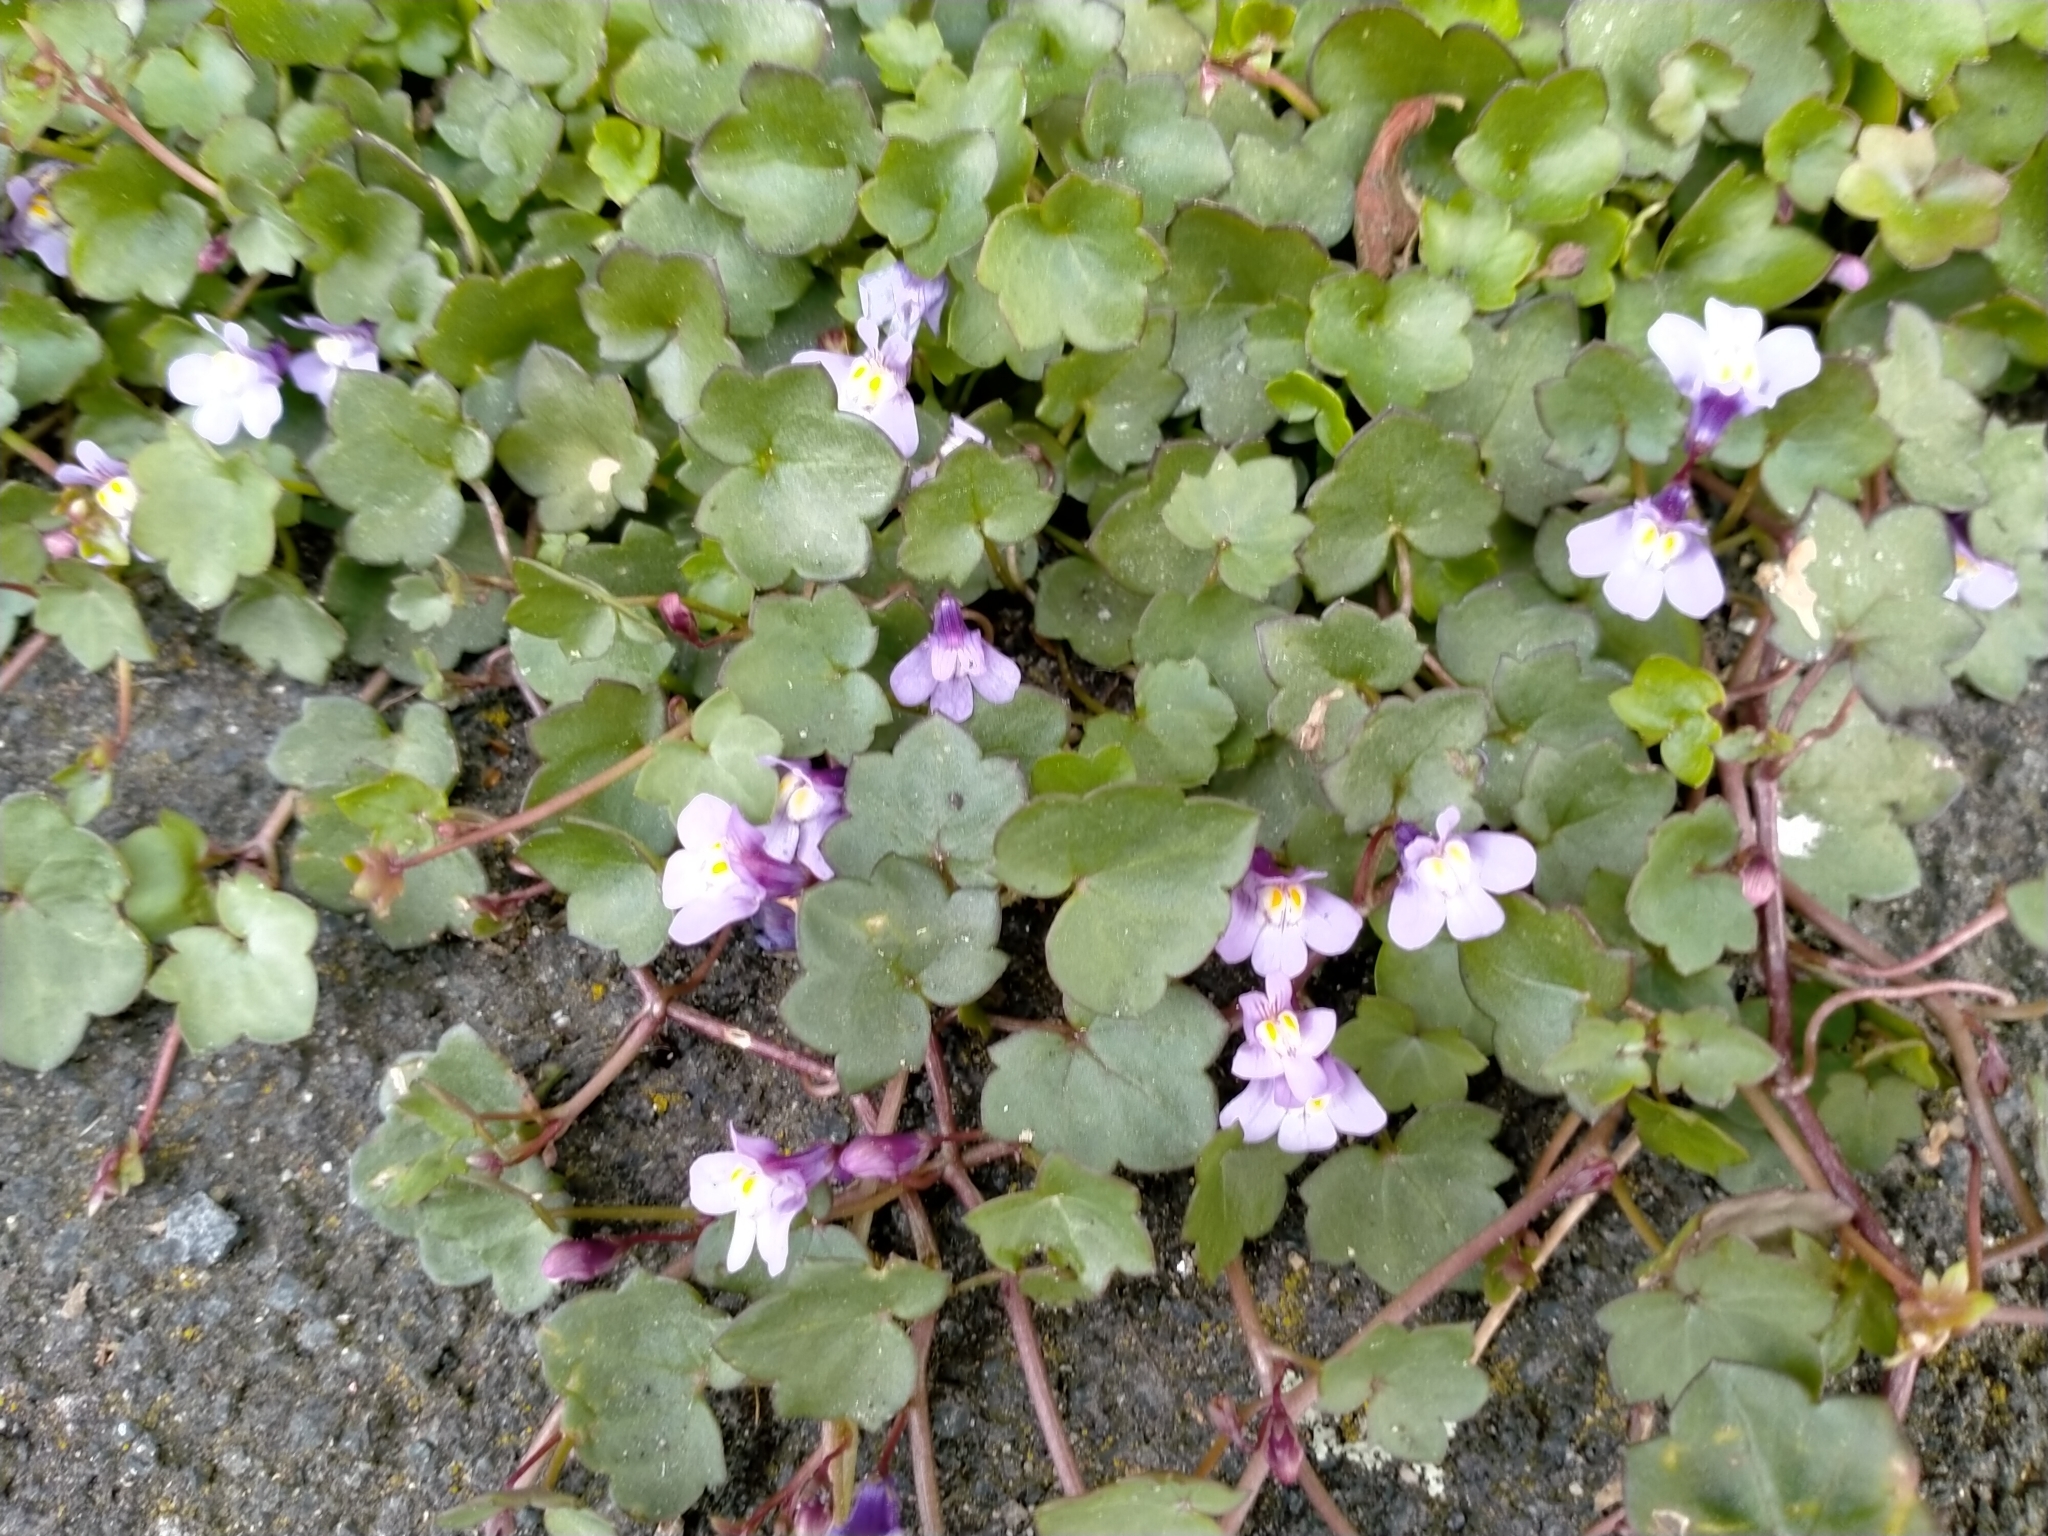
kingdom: Plantae
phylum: Tracheophyta
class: Magnoliopsida
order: Lamiales
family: Plantaginaceae
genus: Cymbalaria
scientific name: Cymbalaria muralis
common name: Ivy-leaved toadflax
